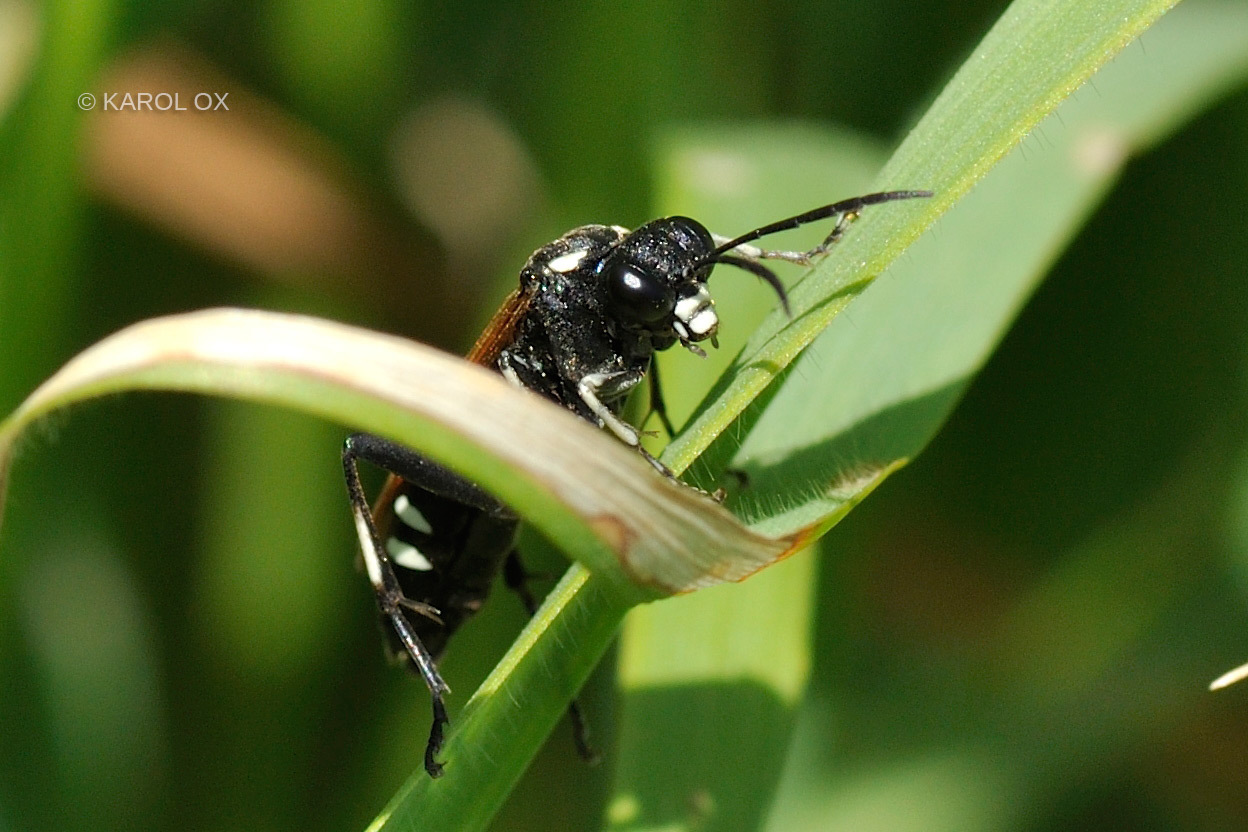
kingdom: Animalia
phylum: Arthropoda
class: Insecta
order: Hymenoptera
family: Tenthredinidae
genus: Macrophya
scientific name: Macrophya duodecimpunctata
